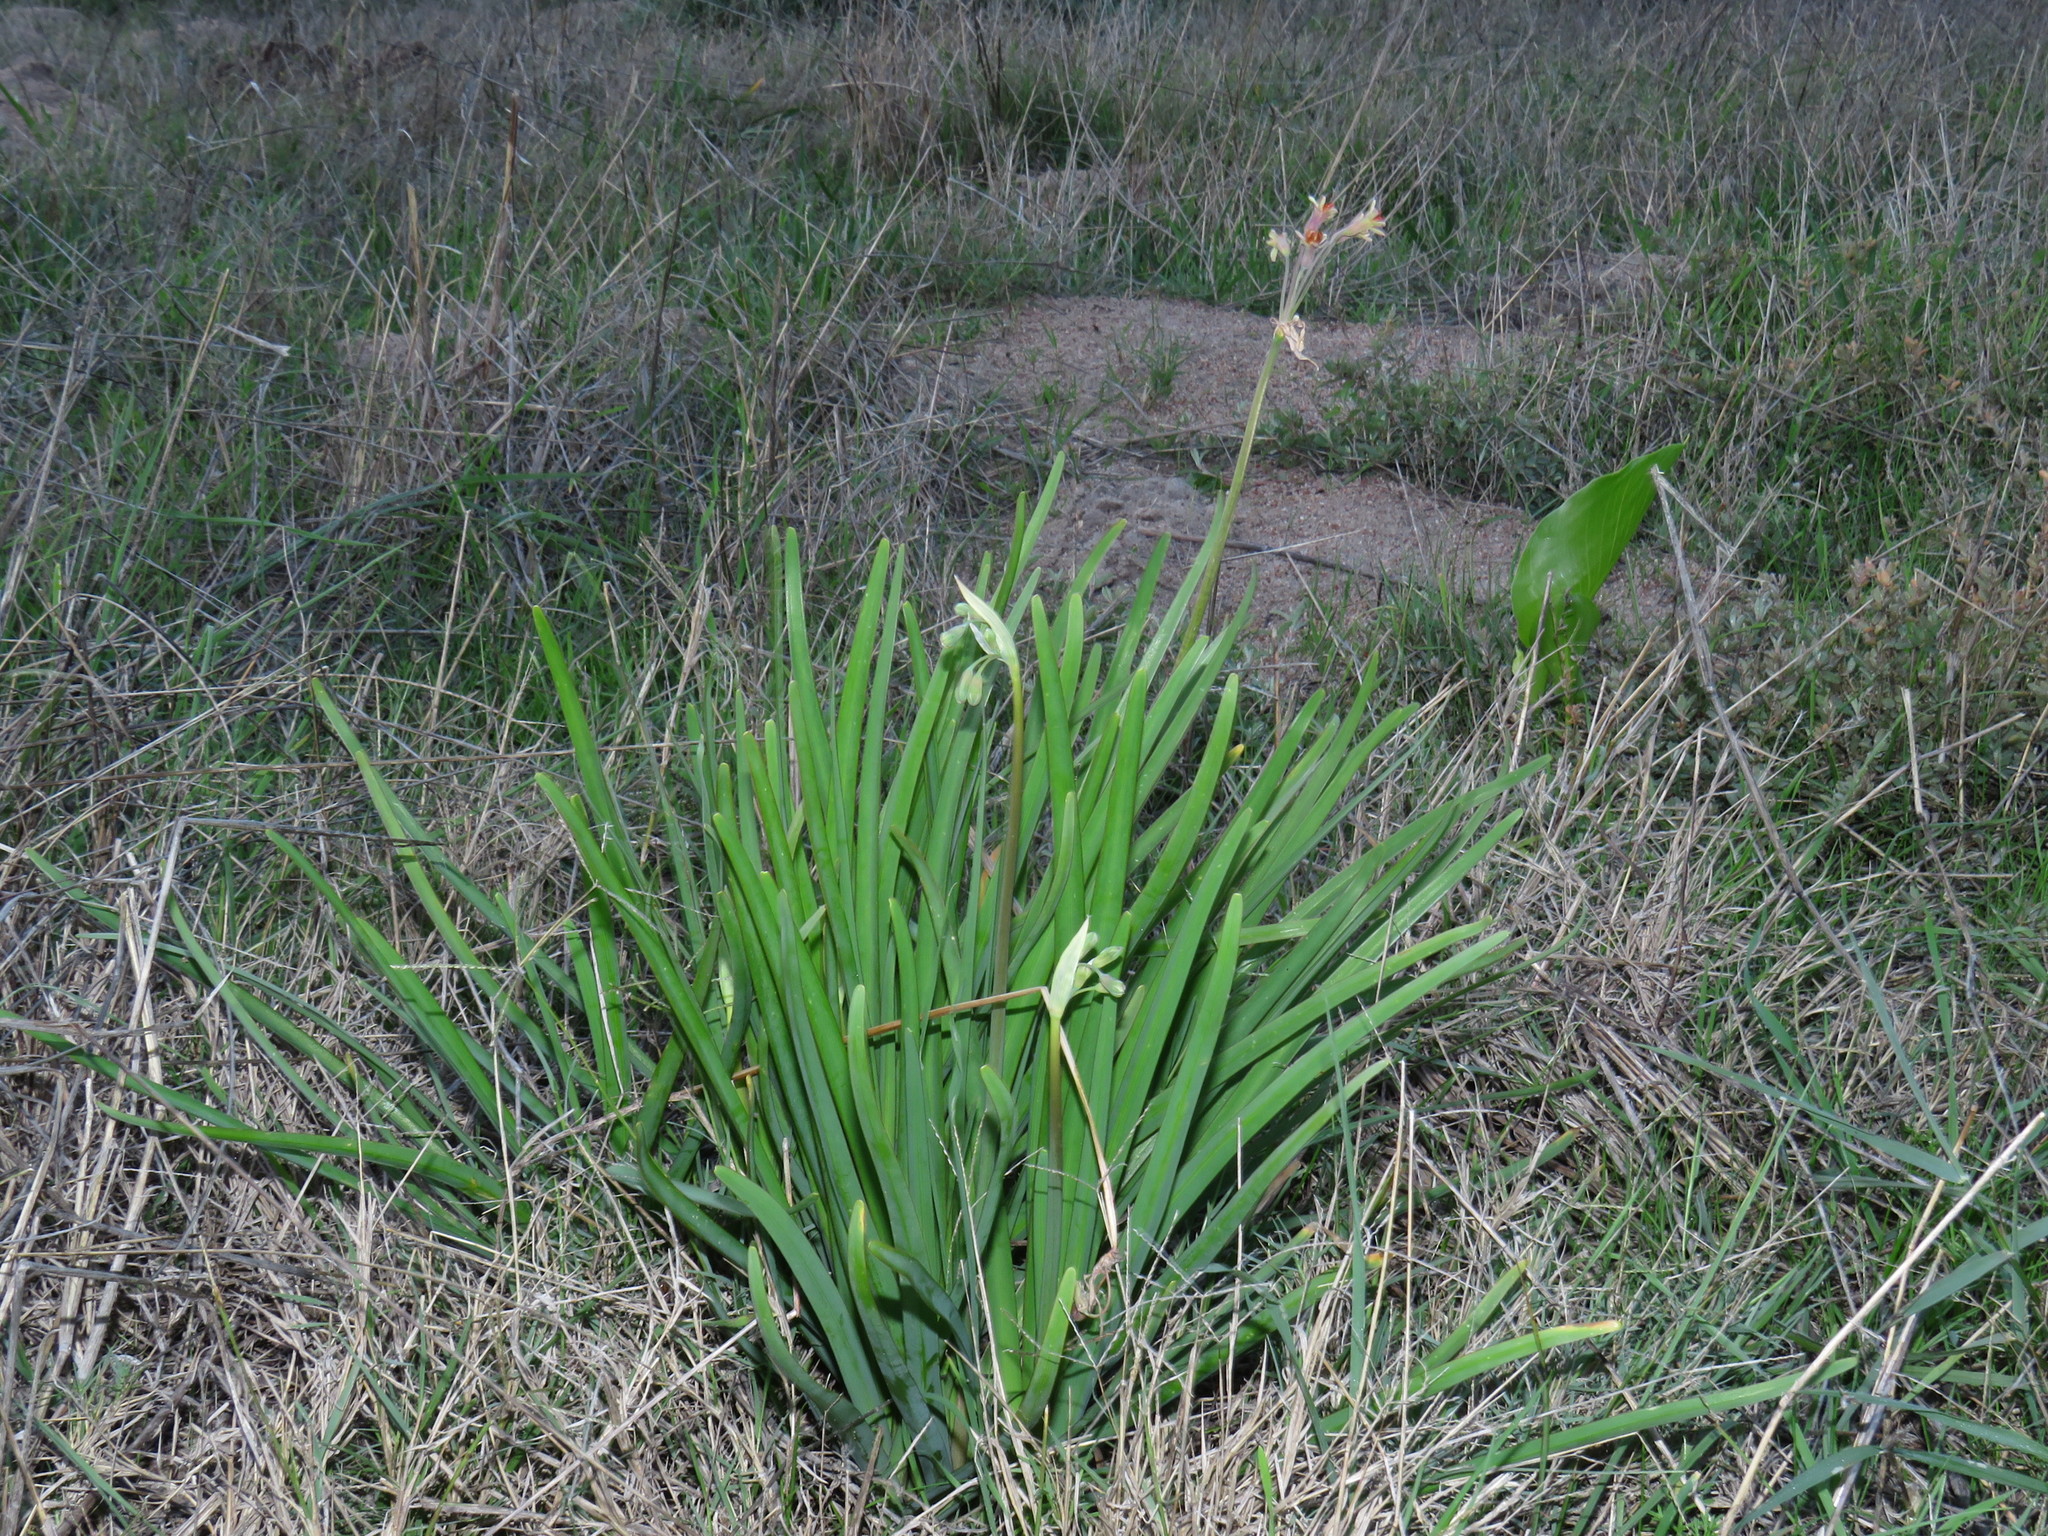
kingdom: Plantae
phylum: Tracheophyta
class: Liliopsida
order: Asparagales
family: Amaryllidaceae
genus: Tulbaghia
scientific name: Tulbaghia capensis
